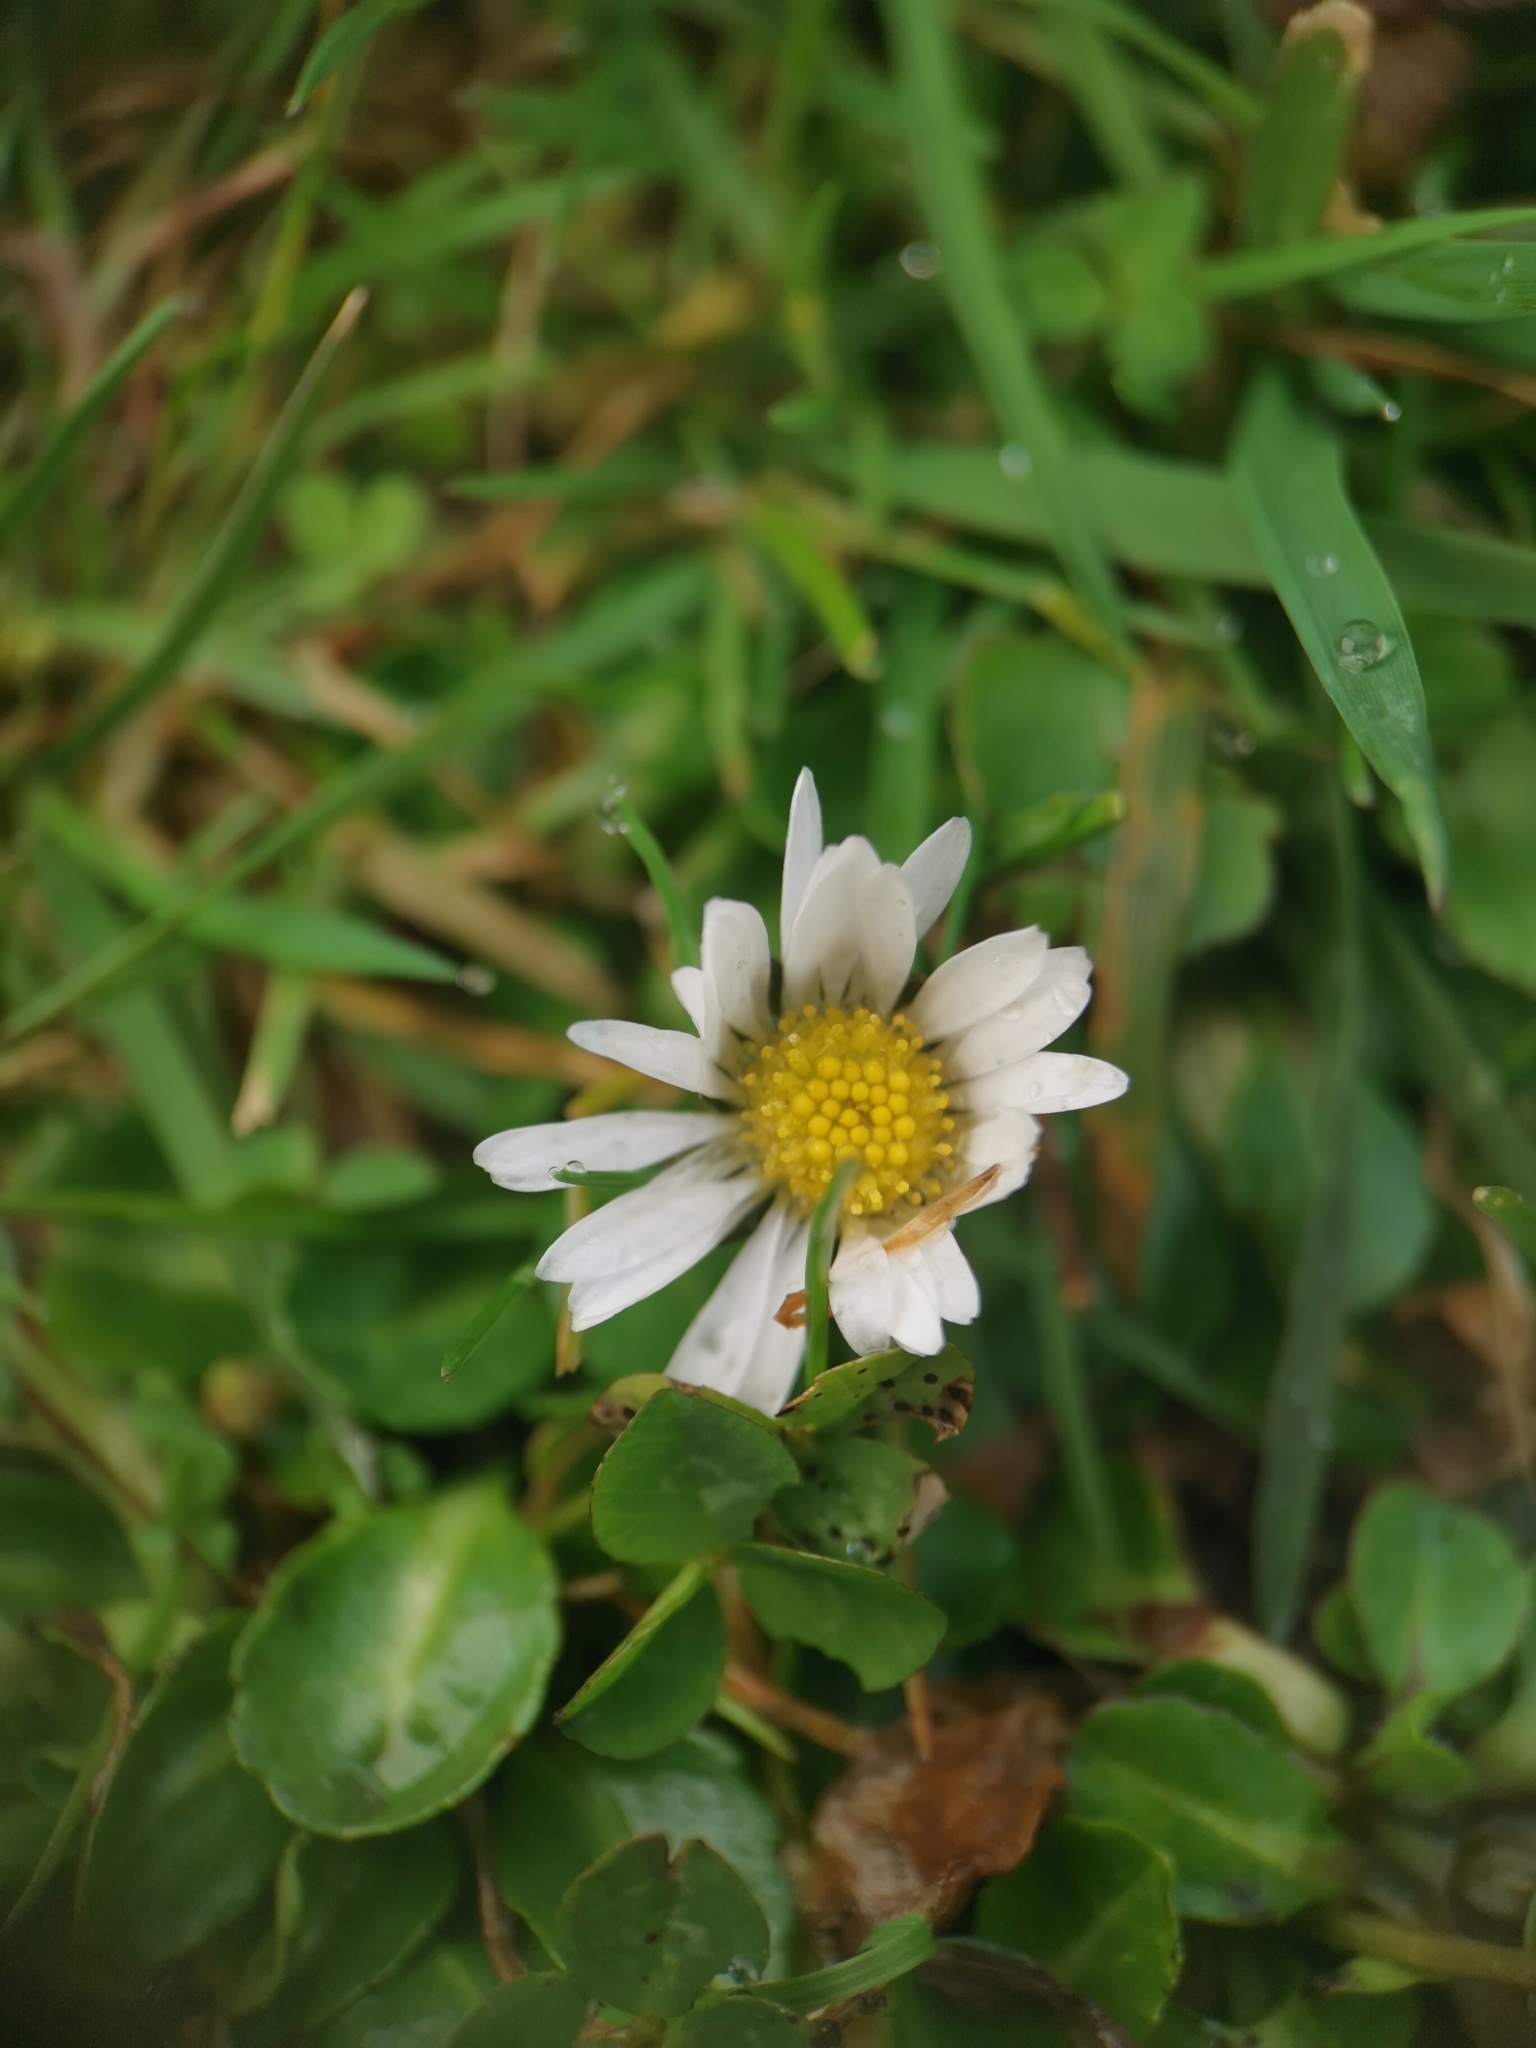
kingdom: Plantae
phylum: Tracheophyta
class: Magnoliopsida
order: Asterales
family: Asteraceae
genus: Bellis
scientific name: Bellis perennis
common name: Lawndaisy
